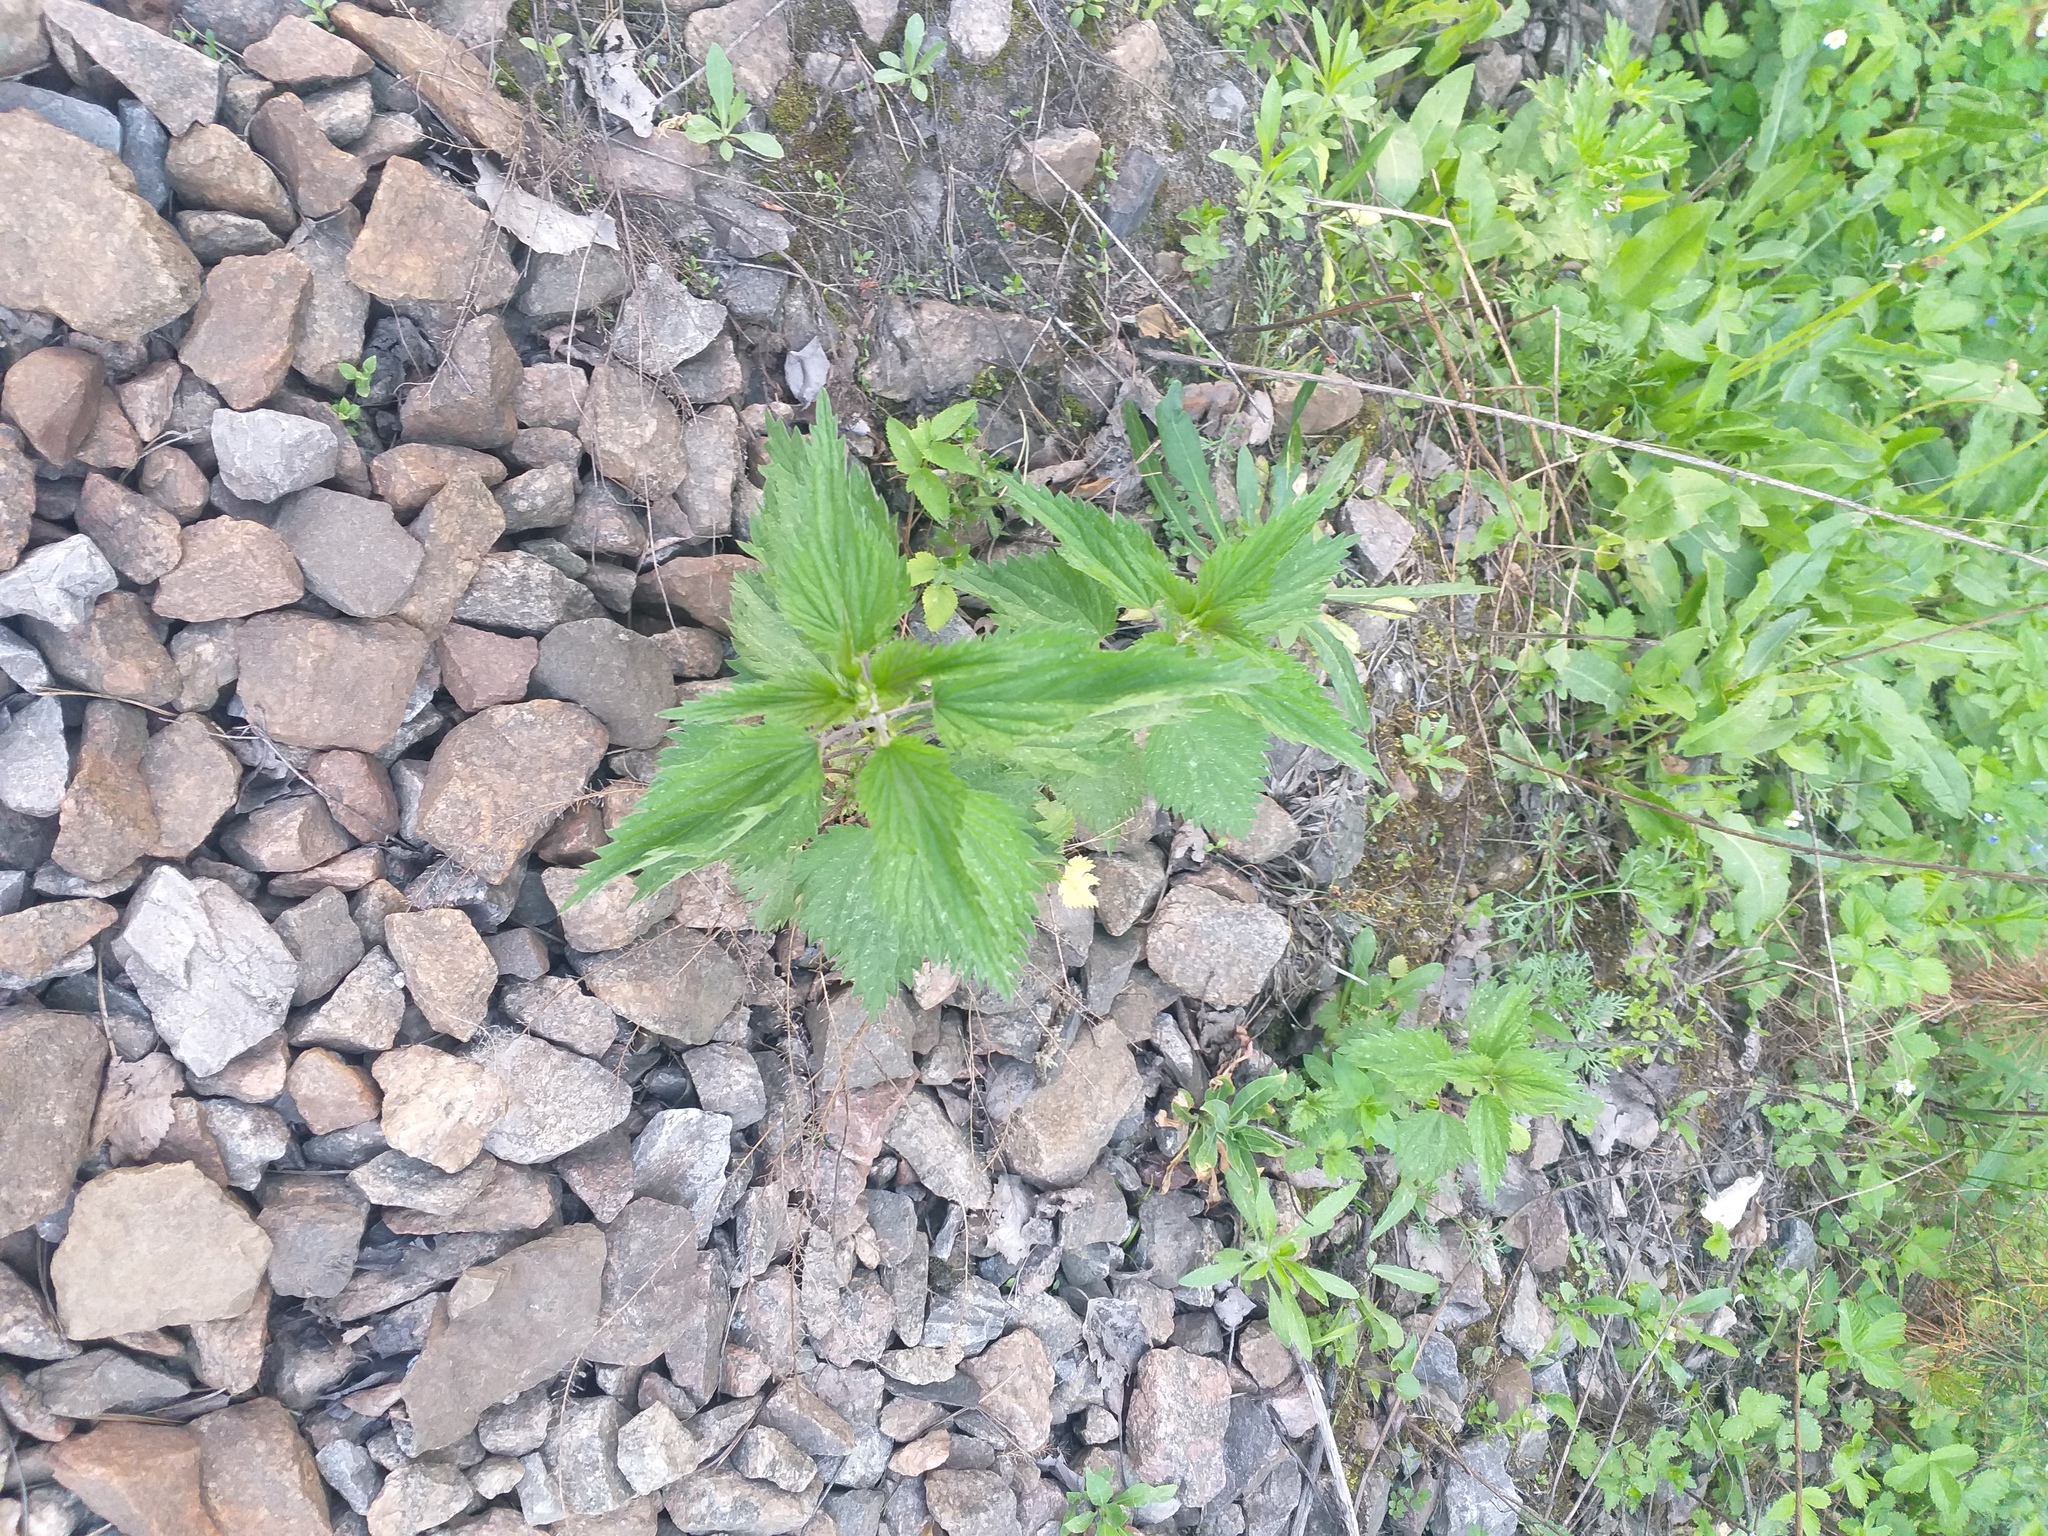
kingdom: Plantae
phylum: Tracheophyta
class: Magnoliopsida
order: Rosales
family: Urticaceae
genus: Urtica
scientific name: Urtica dioica
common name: Common nettle
